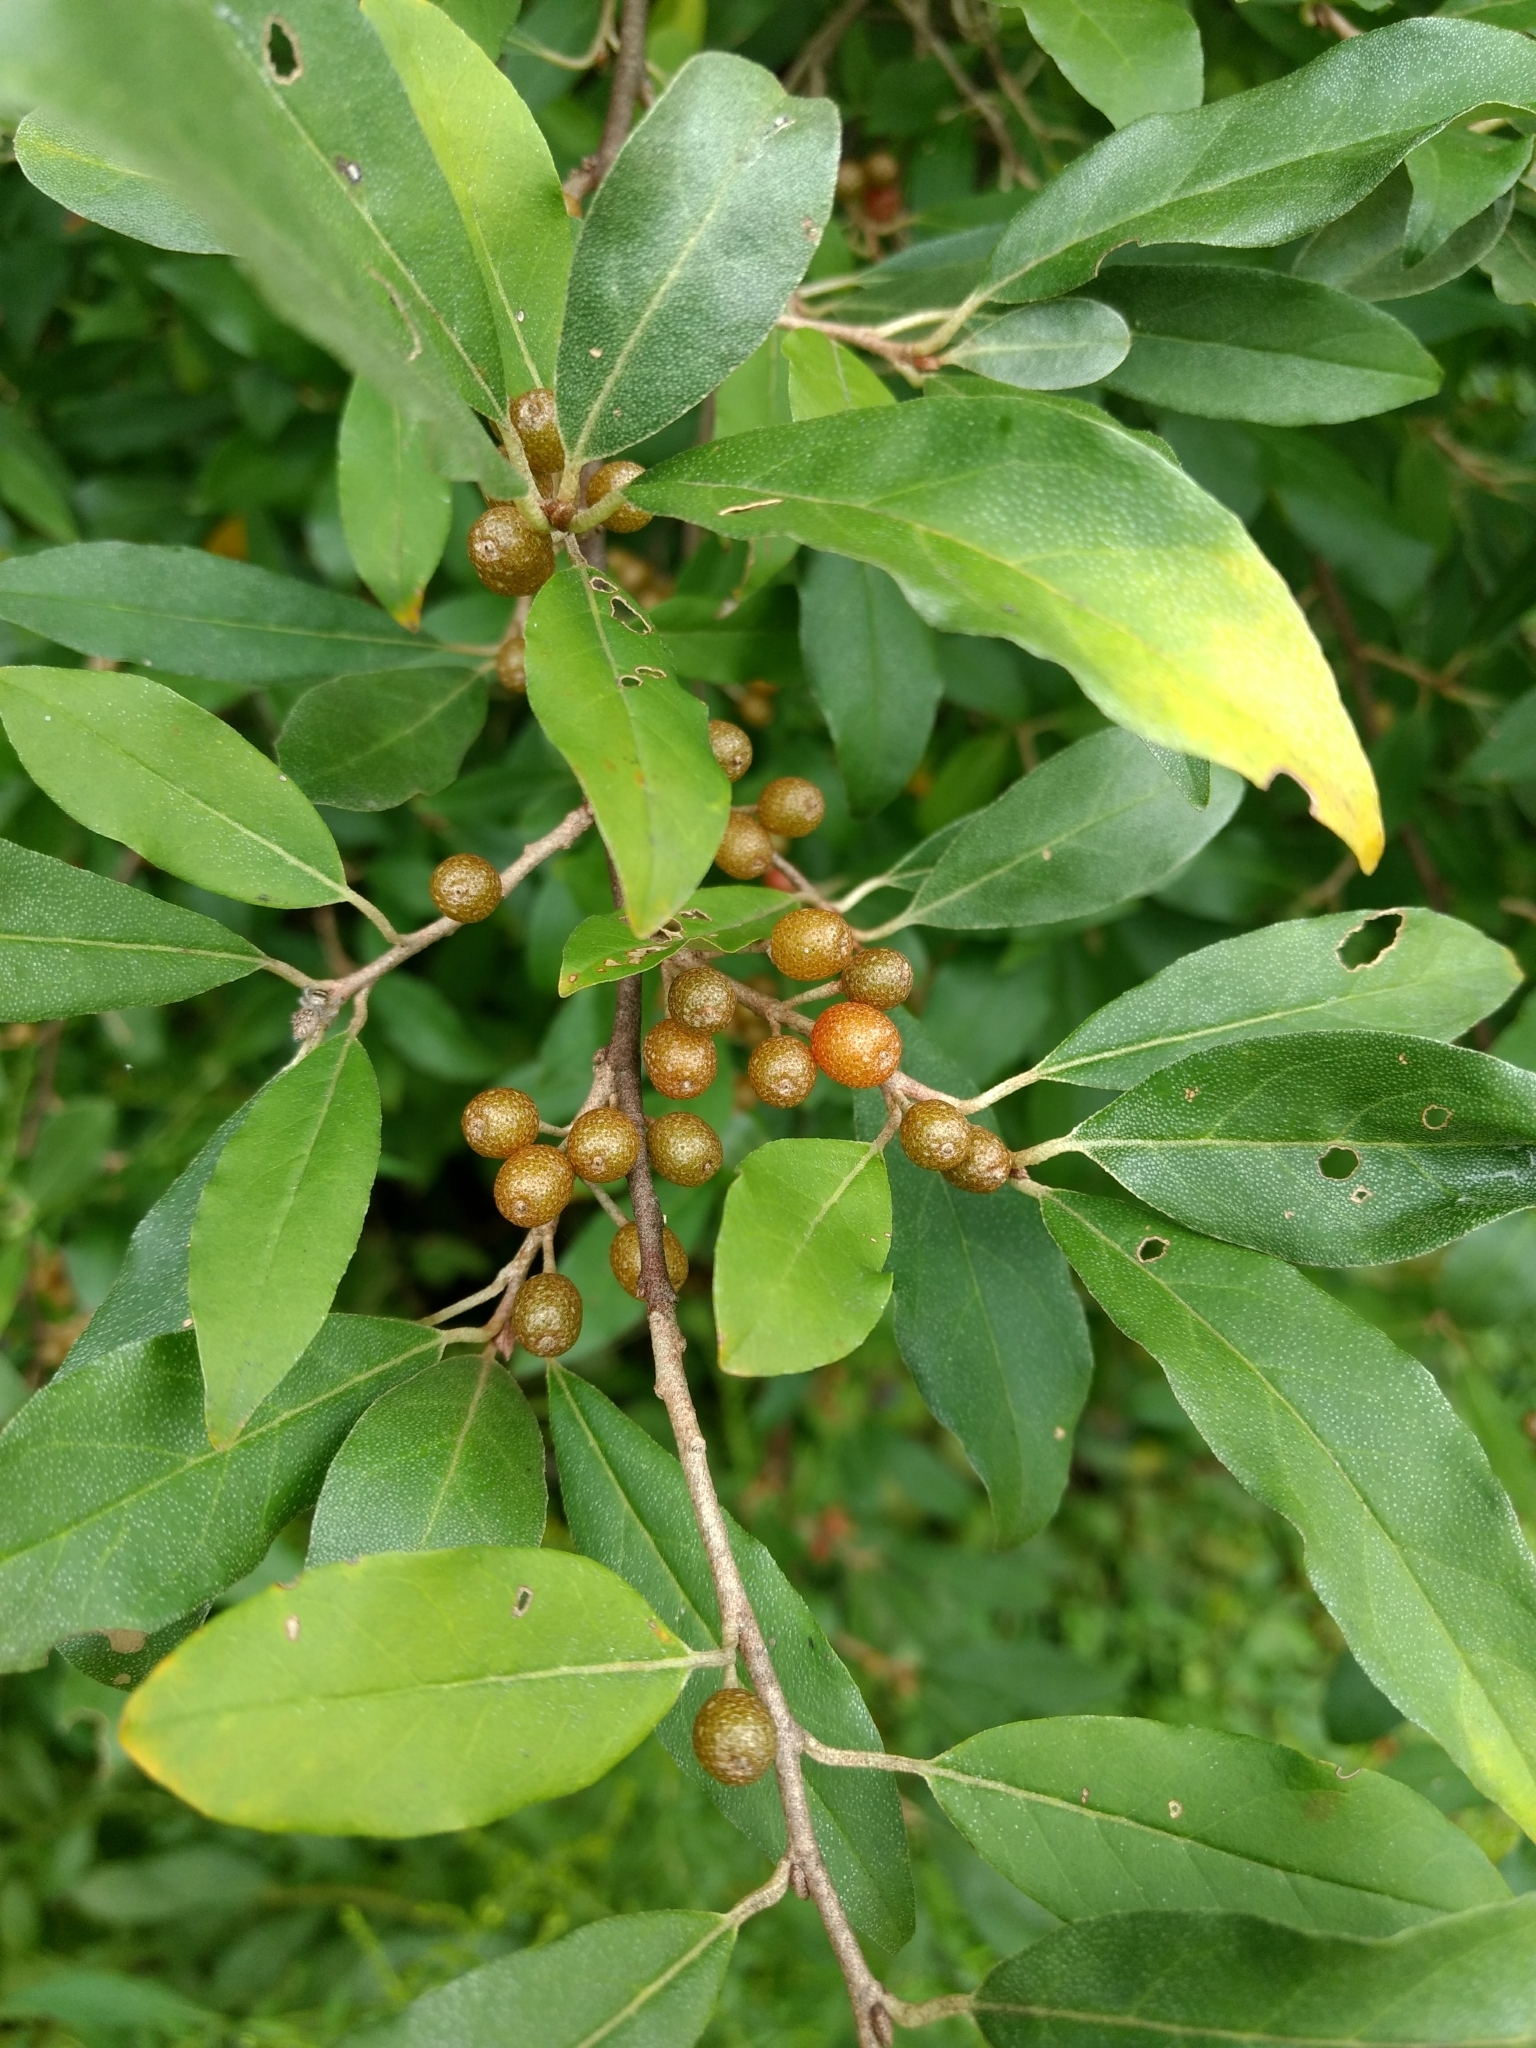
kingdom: Plantae
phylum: Tracheophyta
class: Magnoliopsida
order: Rosales
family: Elaeagnaceae
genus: Elaeagnus
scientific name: Elaeagnus umbellata
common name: Autumn olive
